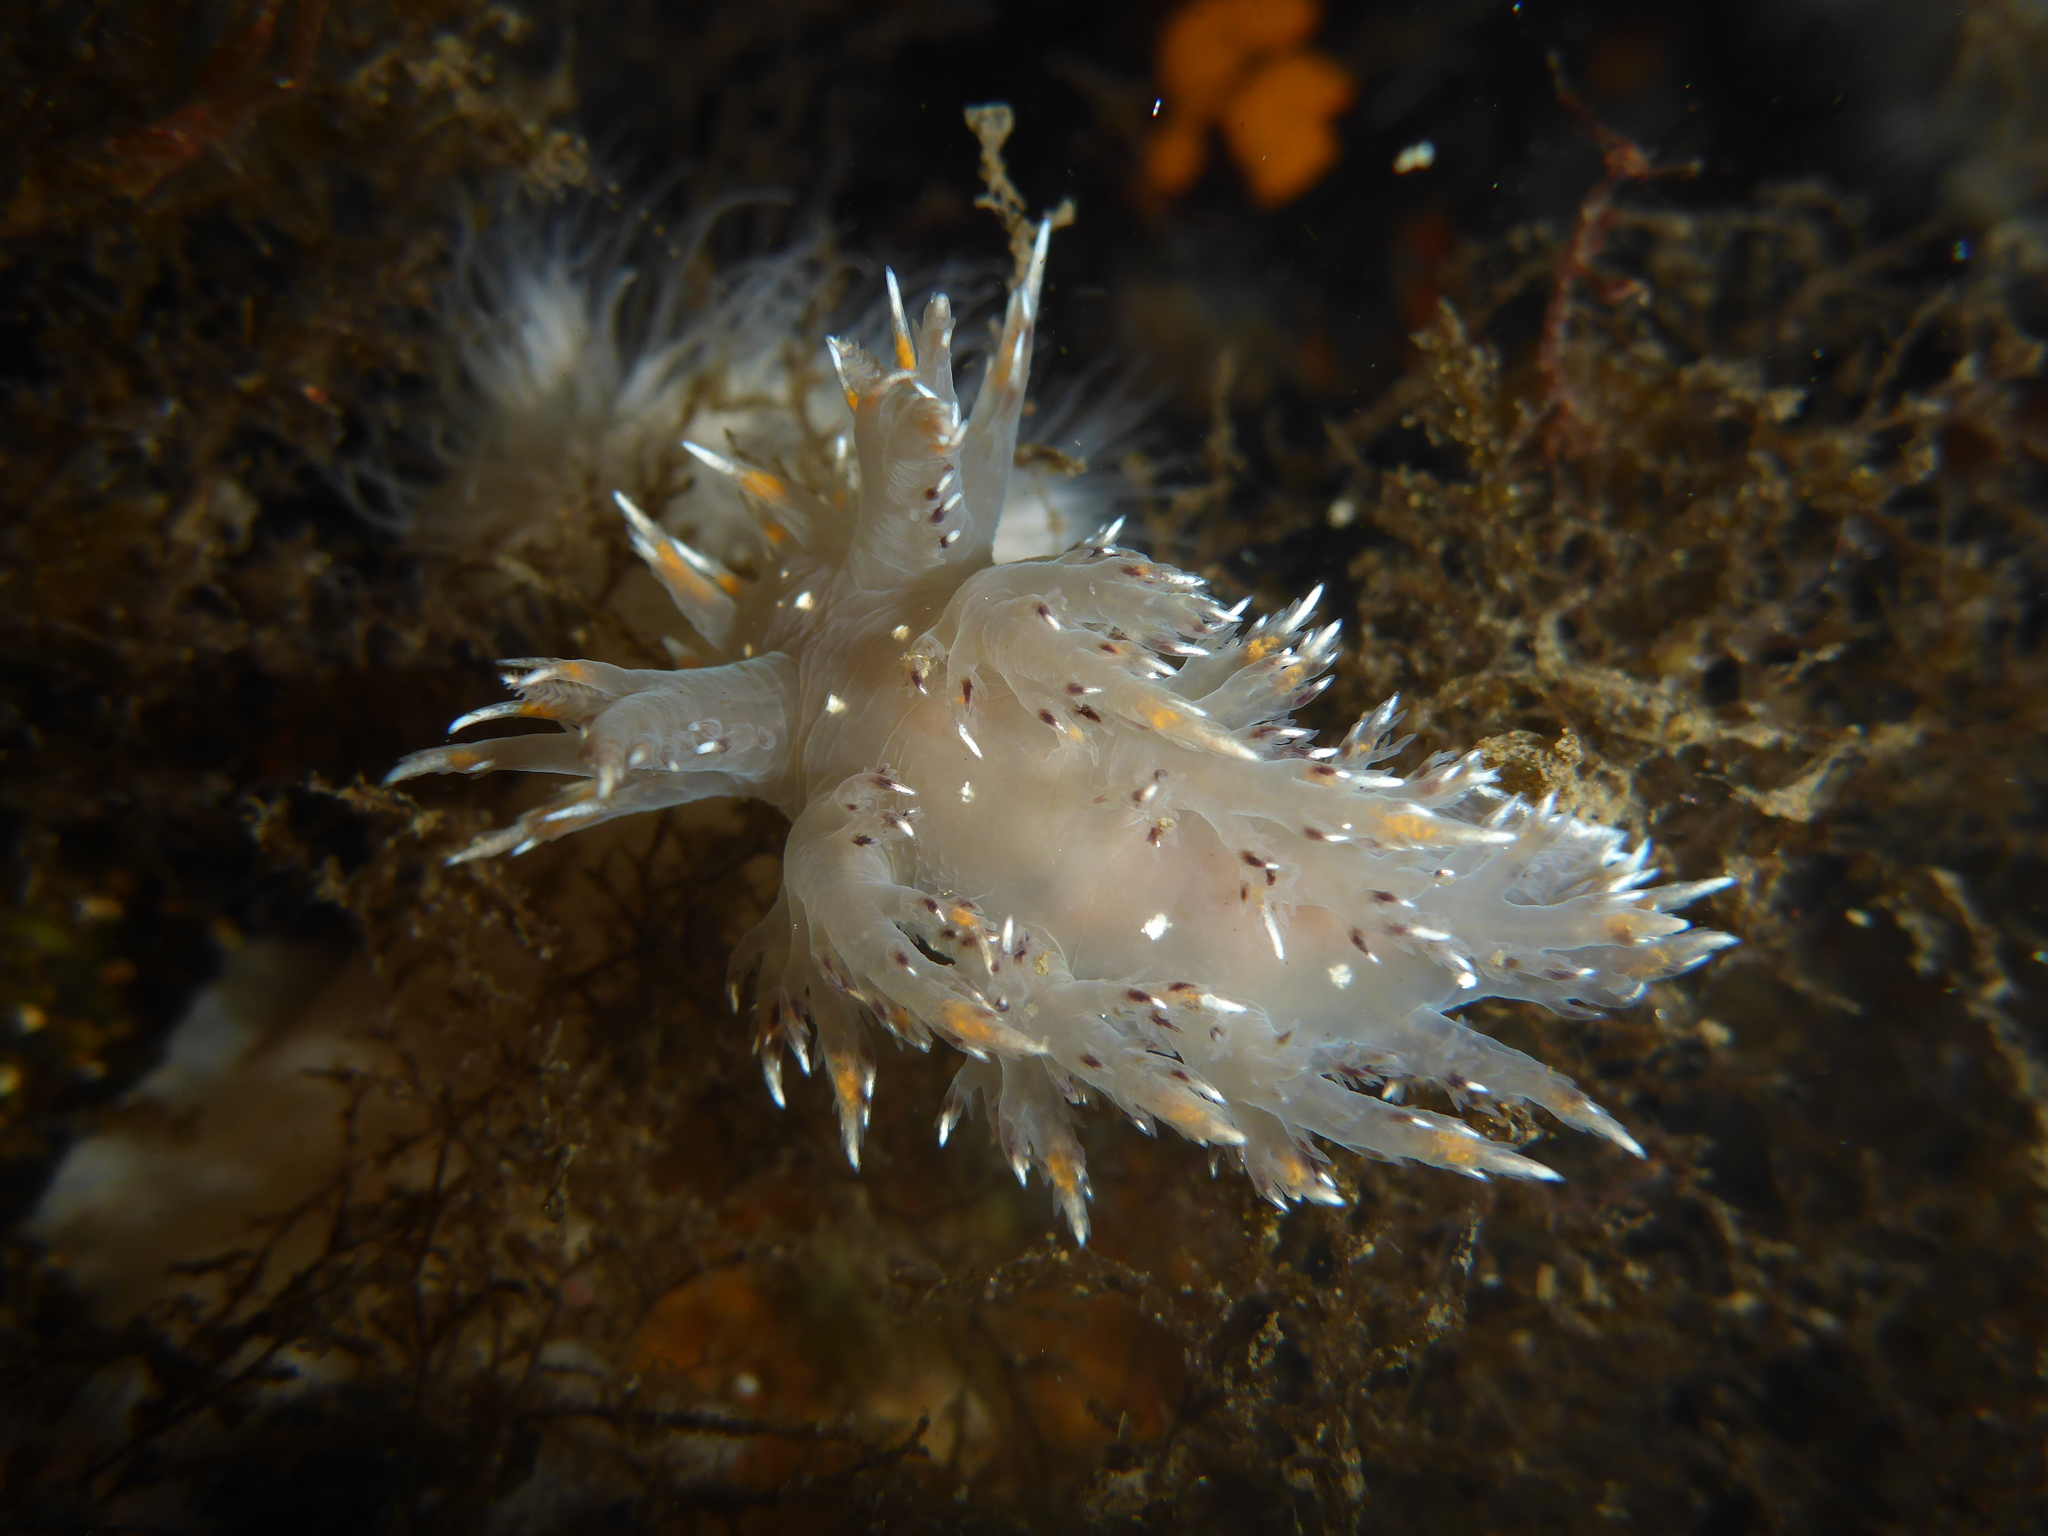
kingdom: Animalia
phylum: Mollusca
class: Gastropoda
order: Nudibranchia
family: Dendronotidae
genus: Dendronotus
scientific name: Dendronotus iris
